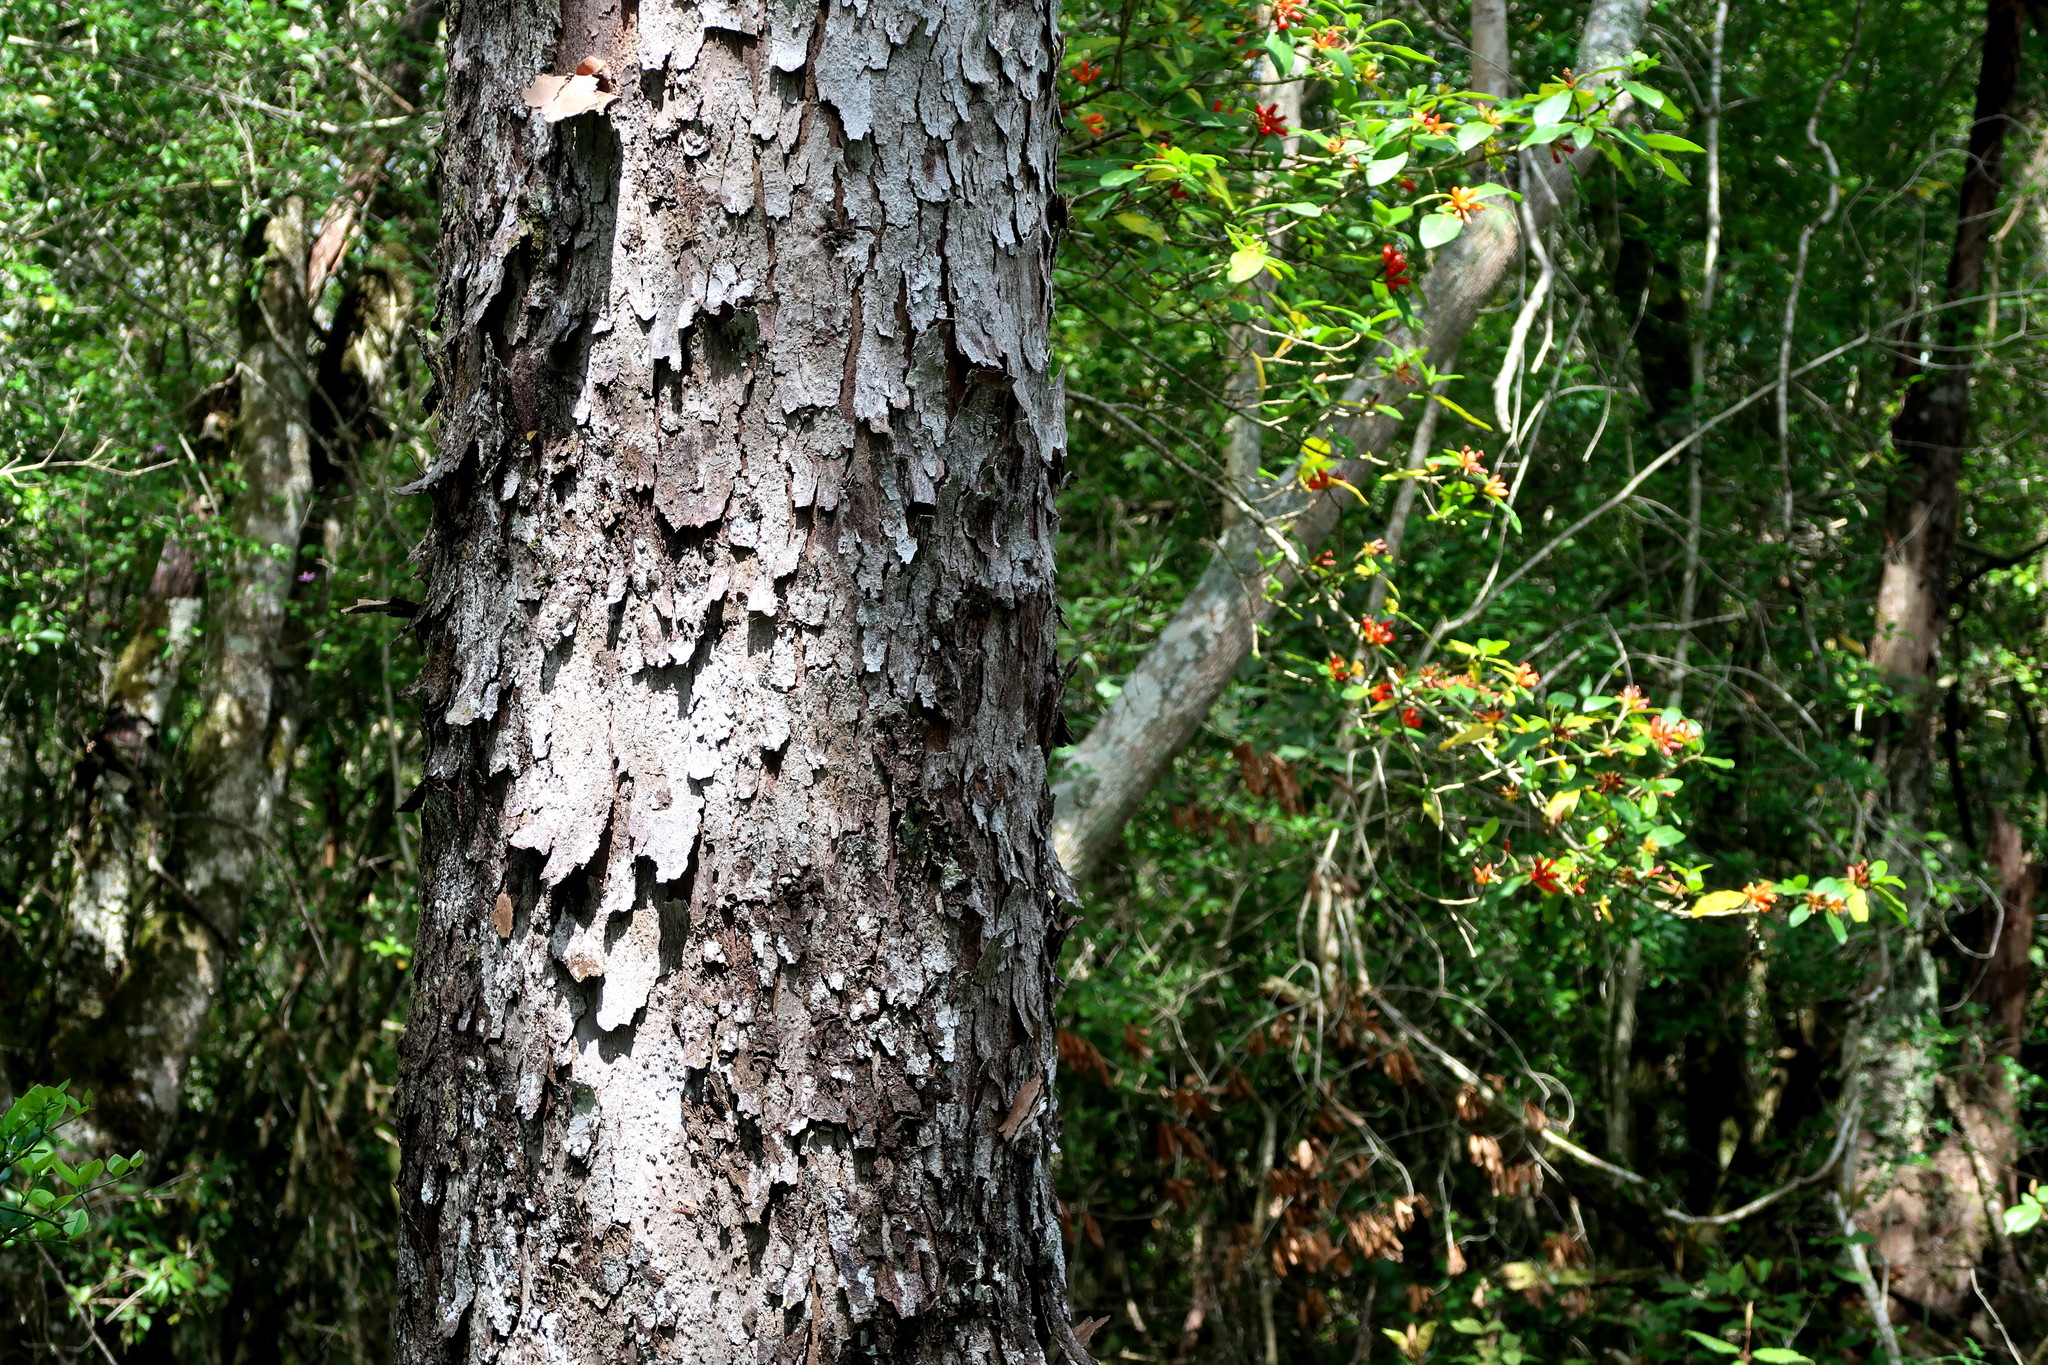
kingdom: Plantae
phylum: Tracheophyta
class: Pinopsida
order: Pinales
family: Podocarpaceae
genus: Afrocarpus
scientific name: Afrocarpus falcatus
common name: Bastard yellowwood
